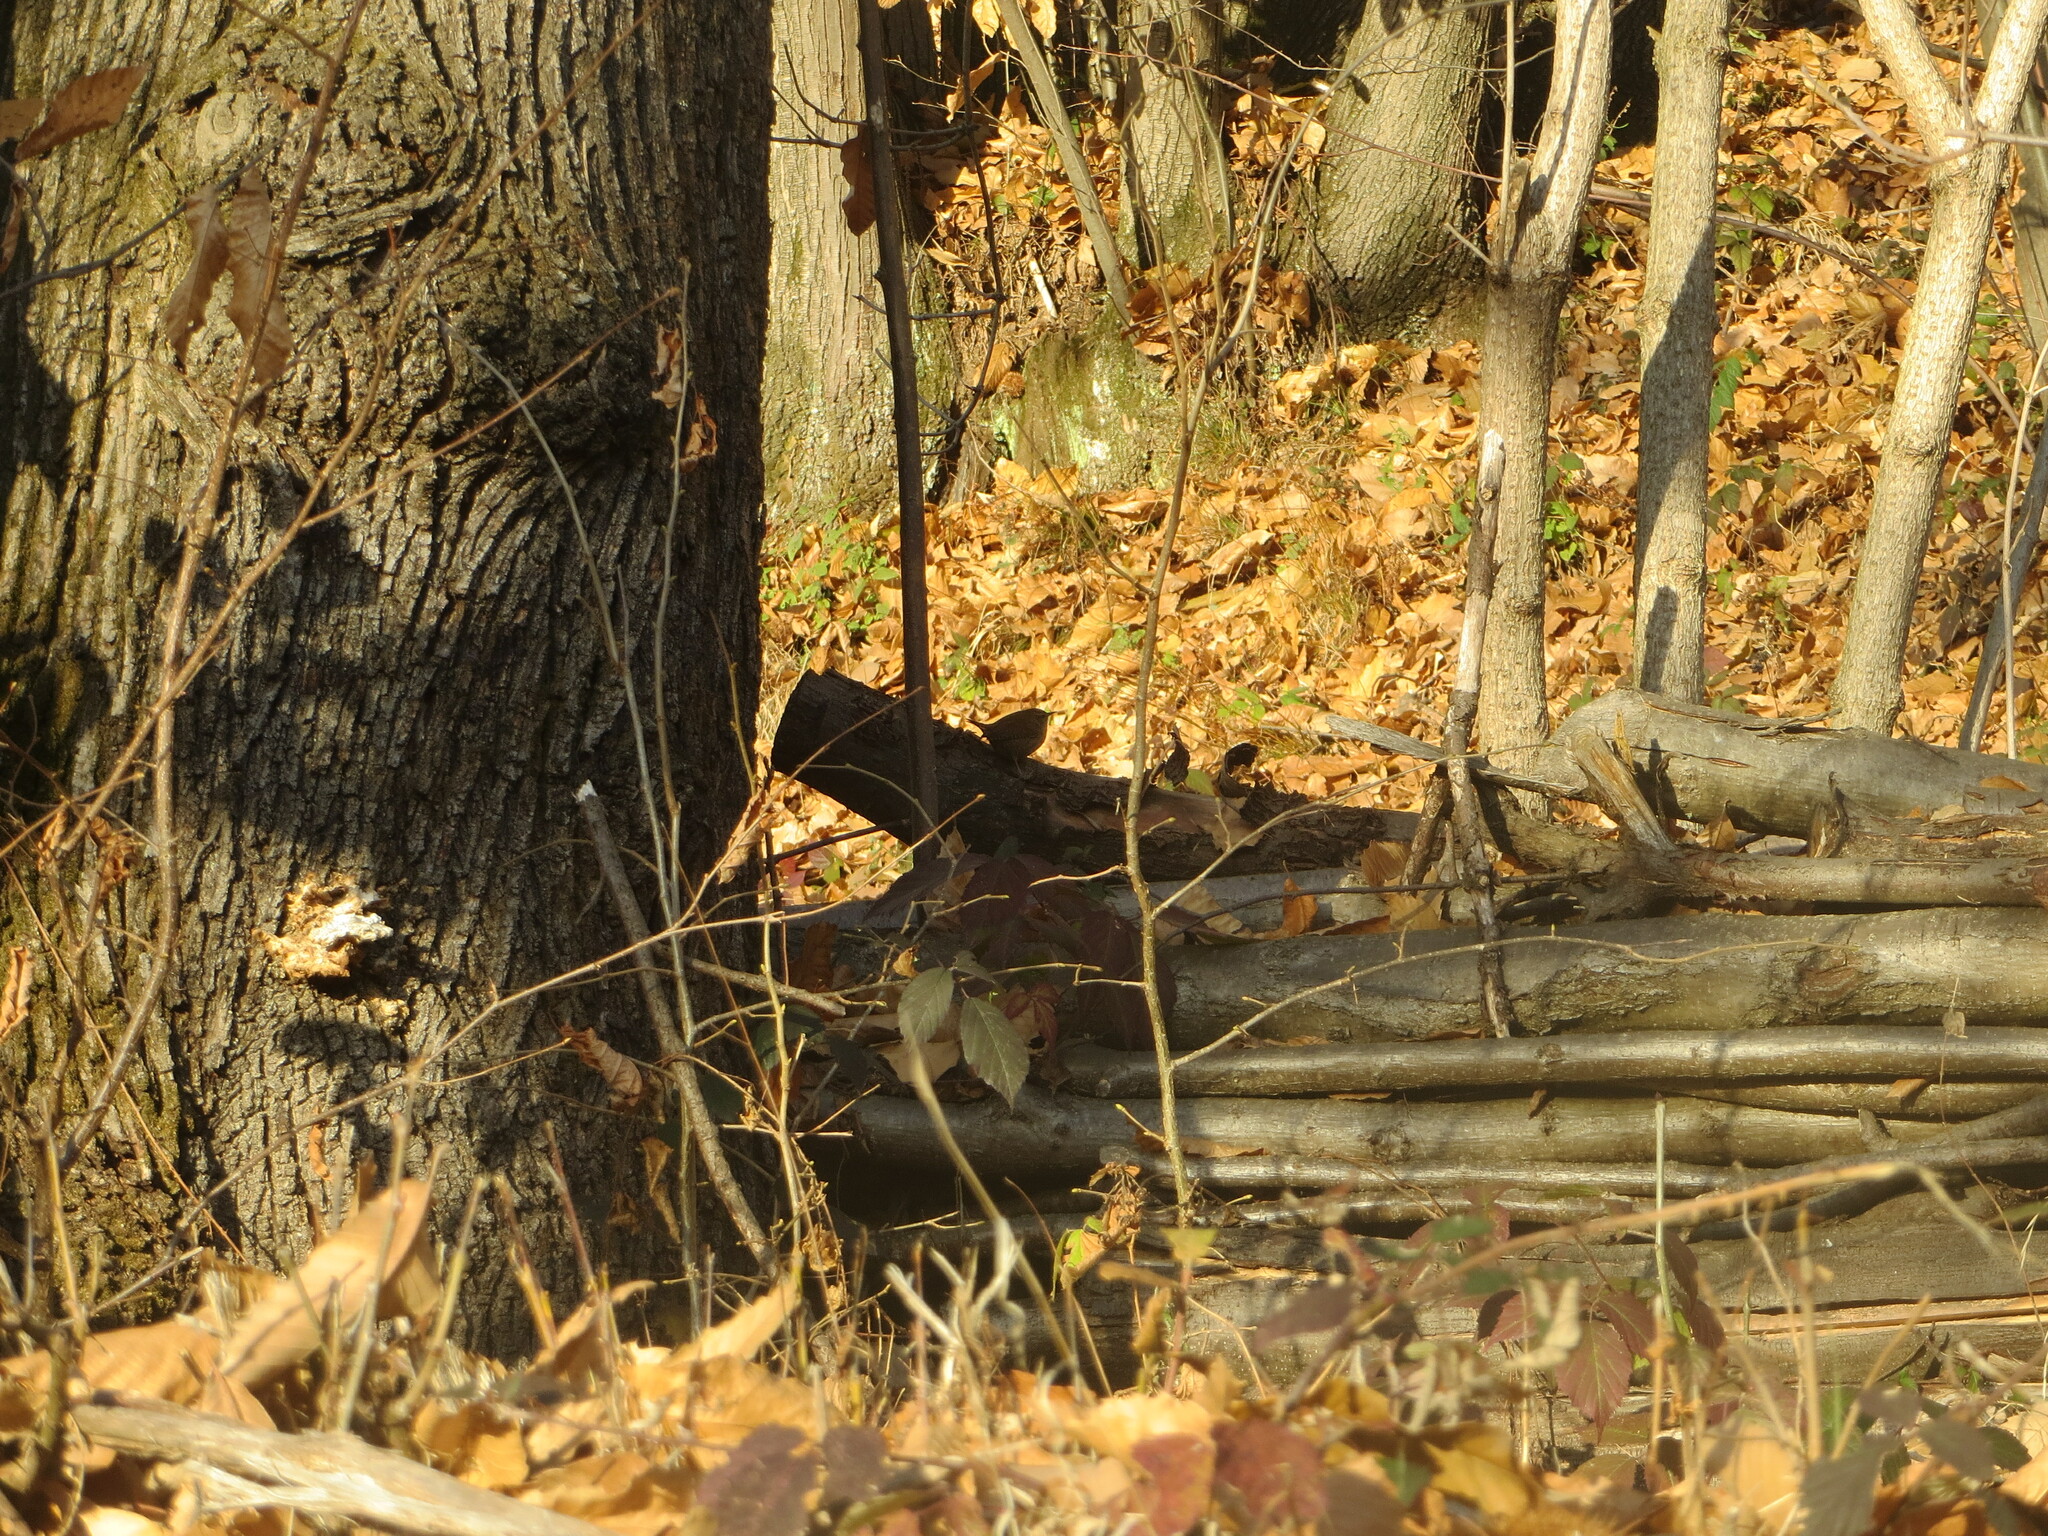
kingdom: Animalia
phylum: Chordata
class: Aves
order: Passeriformes
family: Troglodytidae
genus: Troglodytes
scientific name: Troglodytes troglodytes
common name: Eurasian wren
